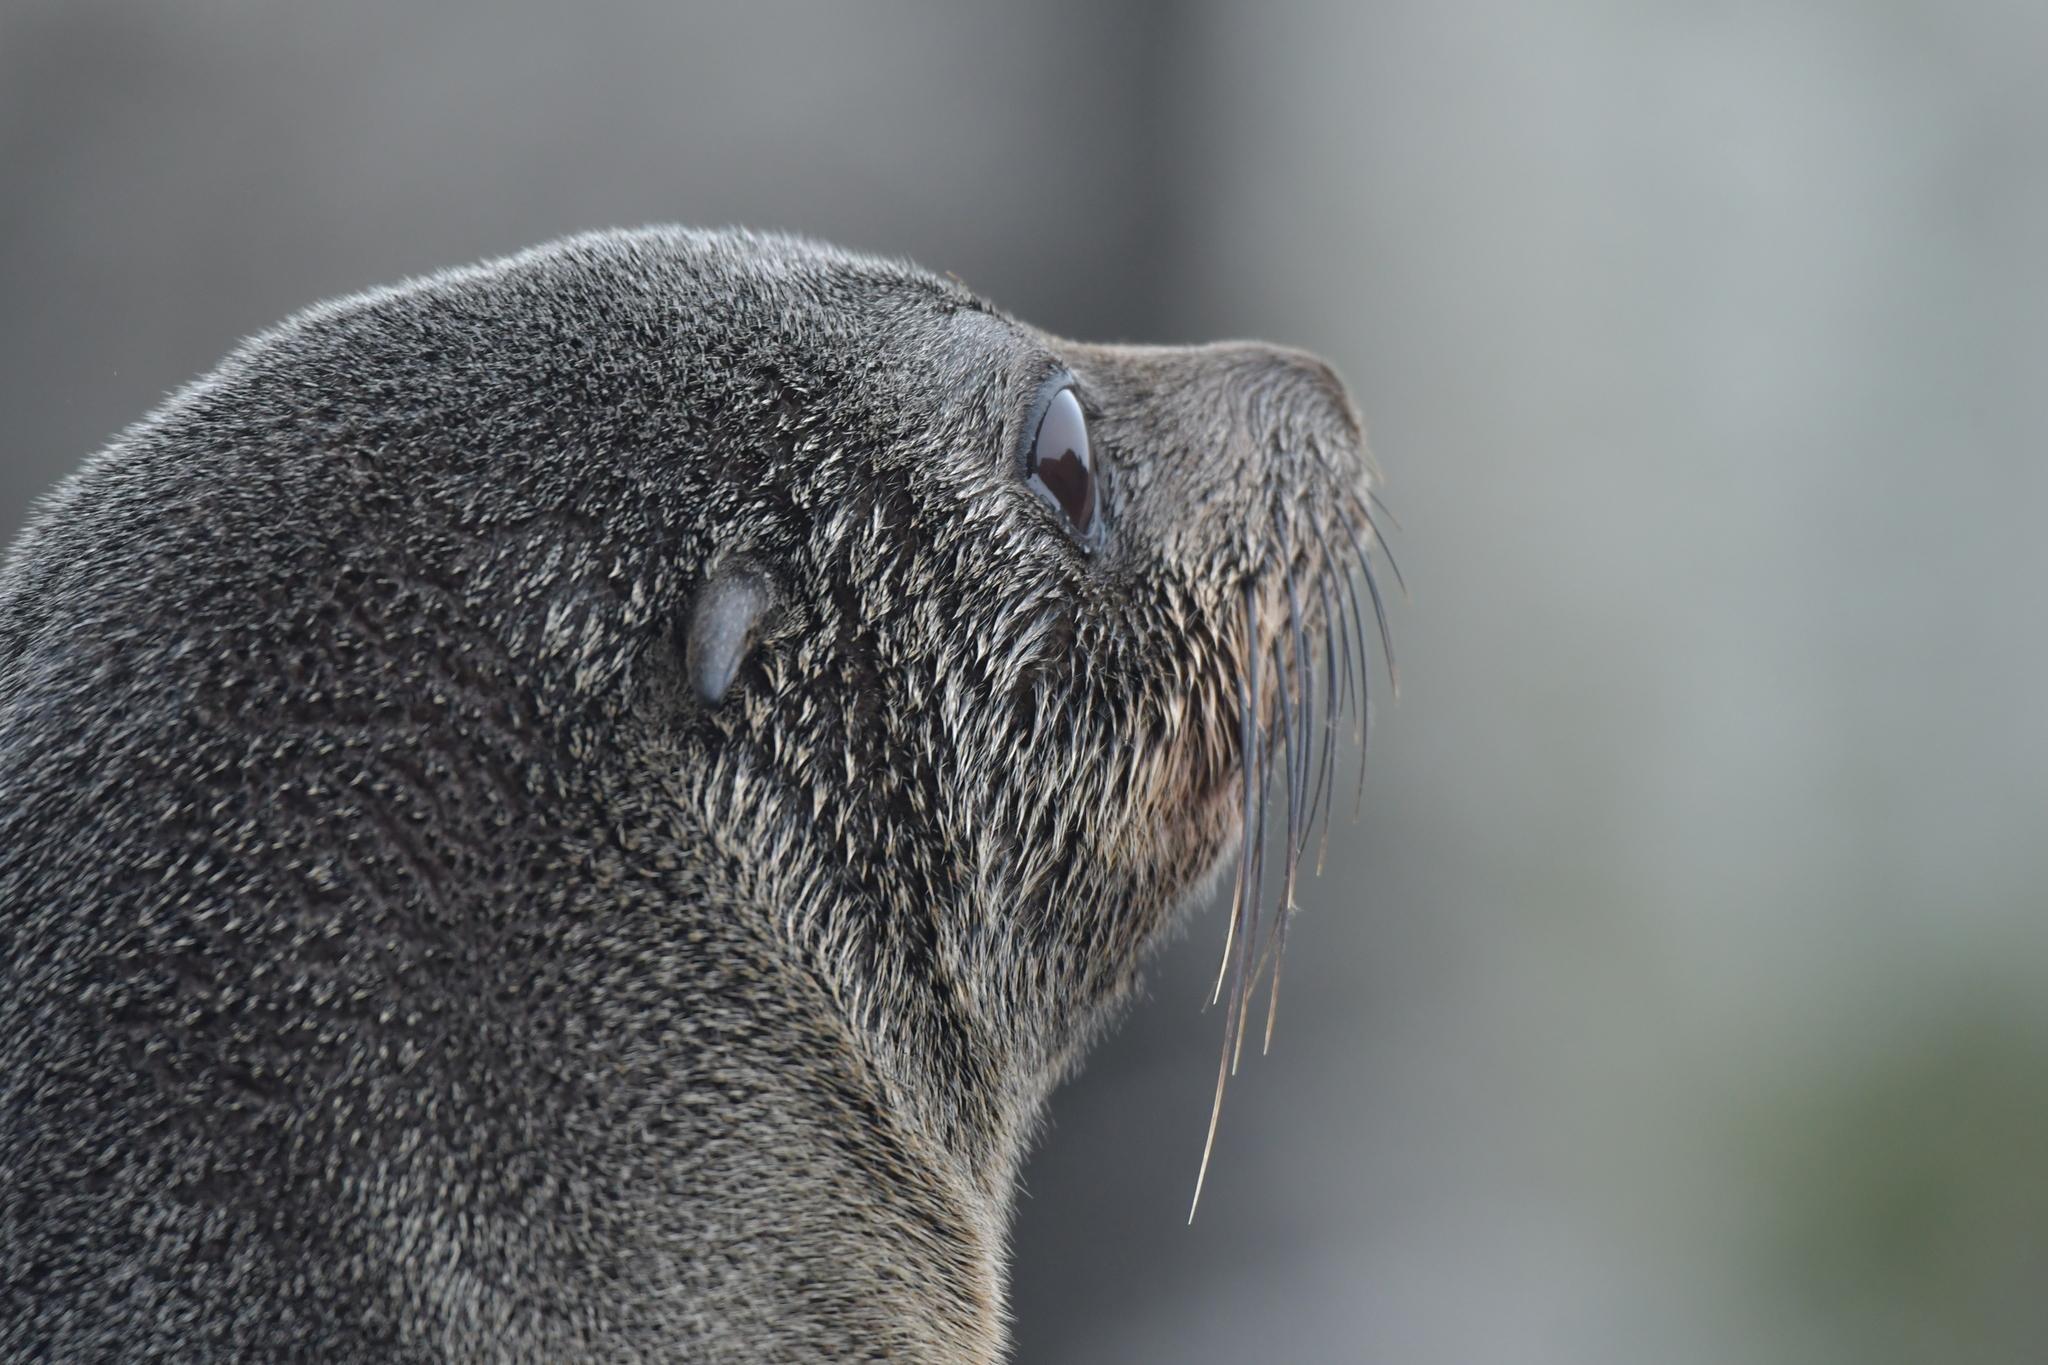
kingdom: Animalia
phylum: Chordata
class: Mammalia
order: Carnivora
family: Otariidae
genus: Arctocephalus
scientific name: Arctocephalus forsteri
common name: New zealand fur seal
